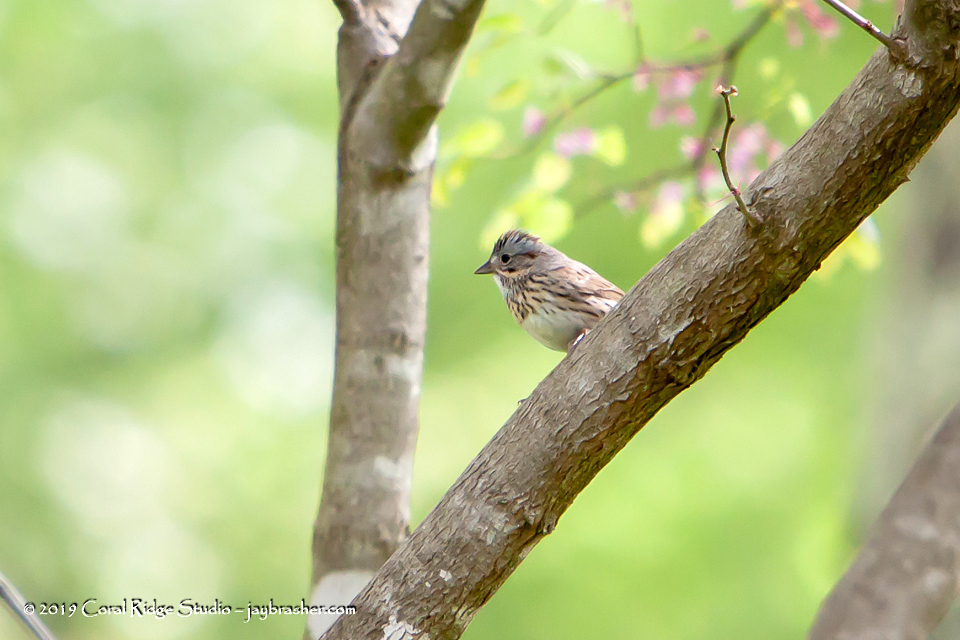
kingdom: Animalia
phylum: Chordata
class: Aves
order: Passeriformes
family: Passerellidae
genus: Melospiza
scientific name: Melospiza lincolnii
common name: Lincoln's sparrow
